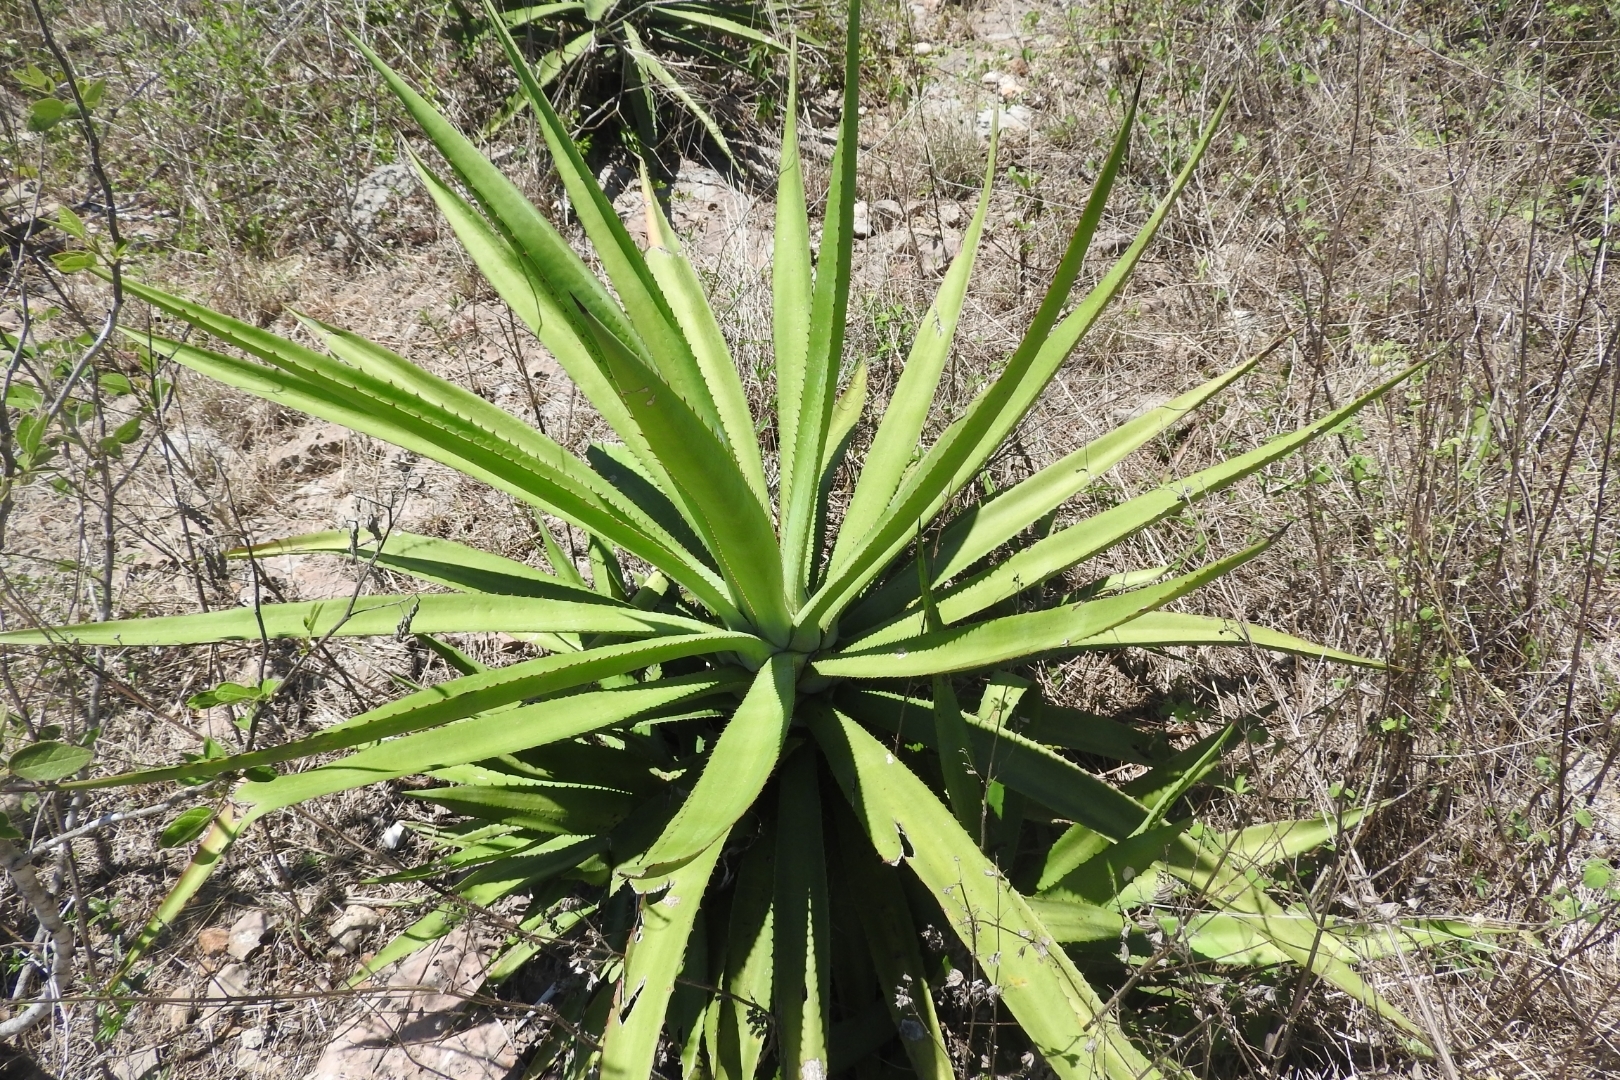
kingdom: Plantae
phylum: Tracheophyta
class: Liliopsida
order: Asparagales
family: Asparagaceae
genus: Agave
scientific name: Agave vivipara
